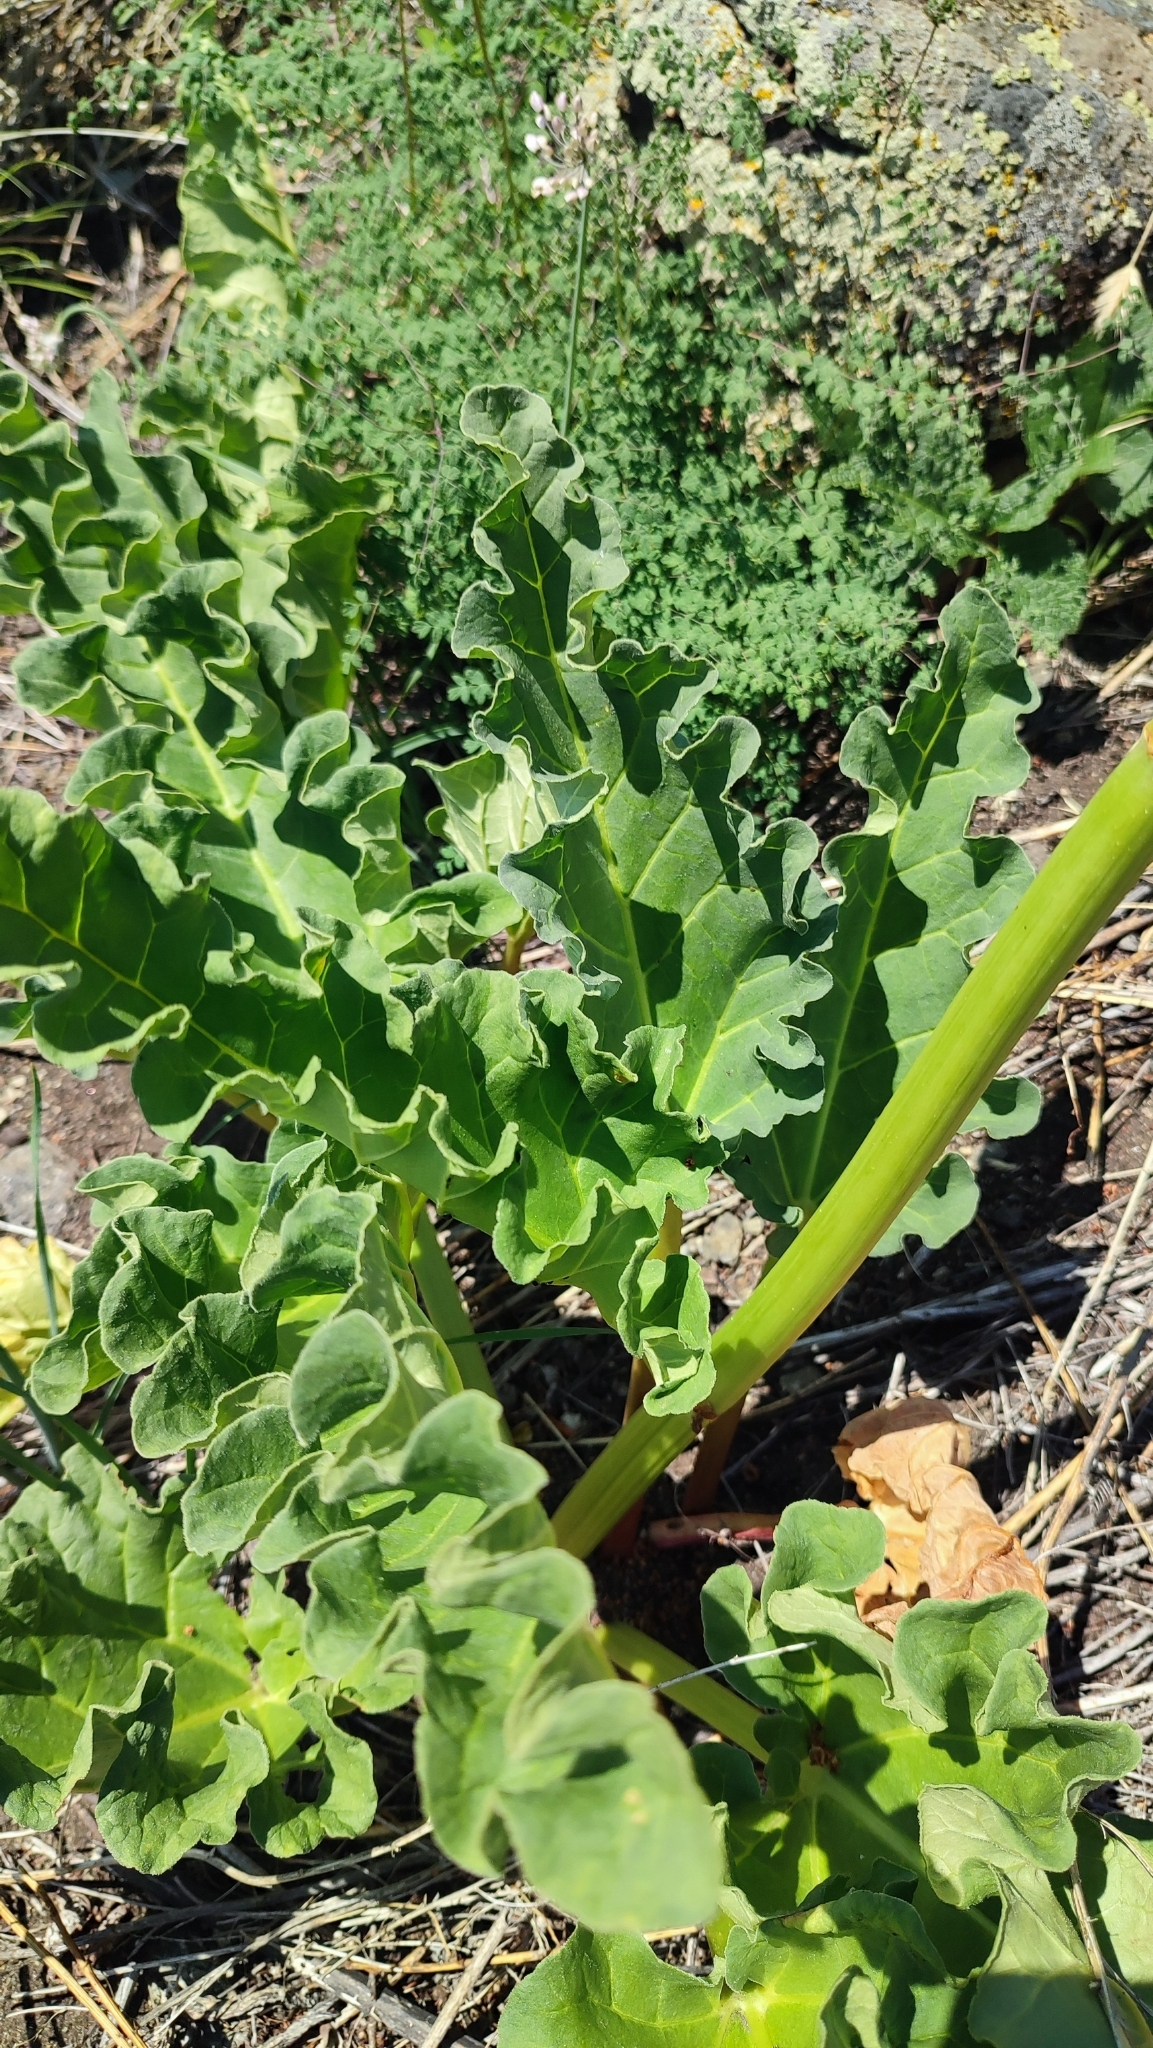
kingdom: Plantae
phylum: Tracheophyta
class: Magnoliopsida
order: Caryophyllales
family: Polygonaceae
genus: Rheum
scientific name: Rheum rhabarbarum
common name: Garden rhubarb
